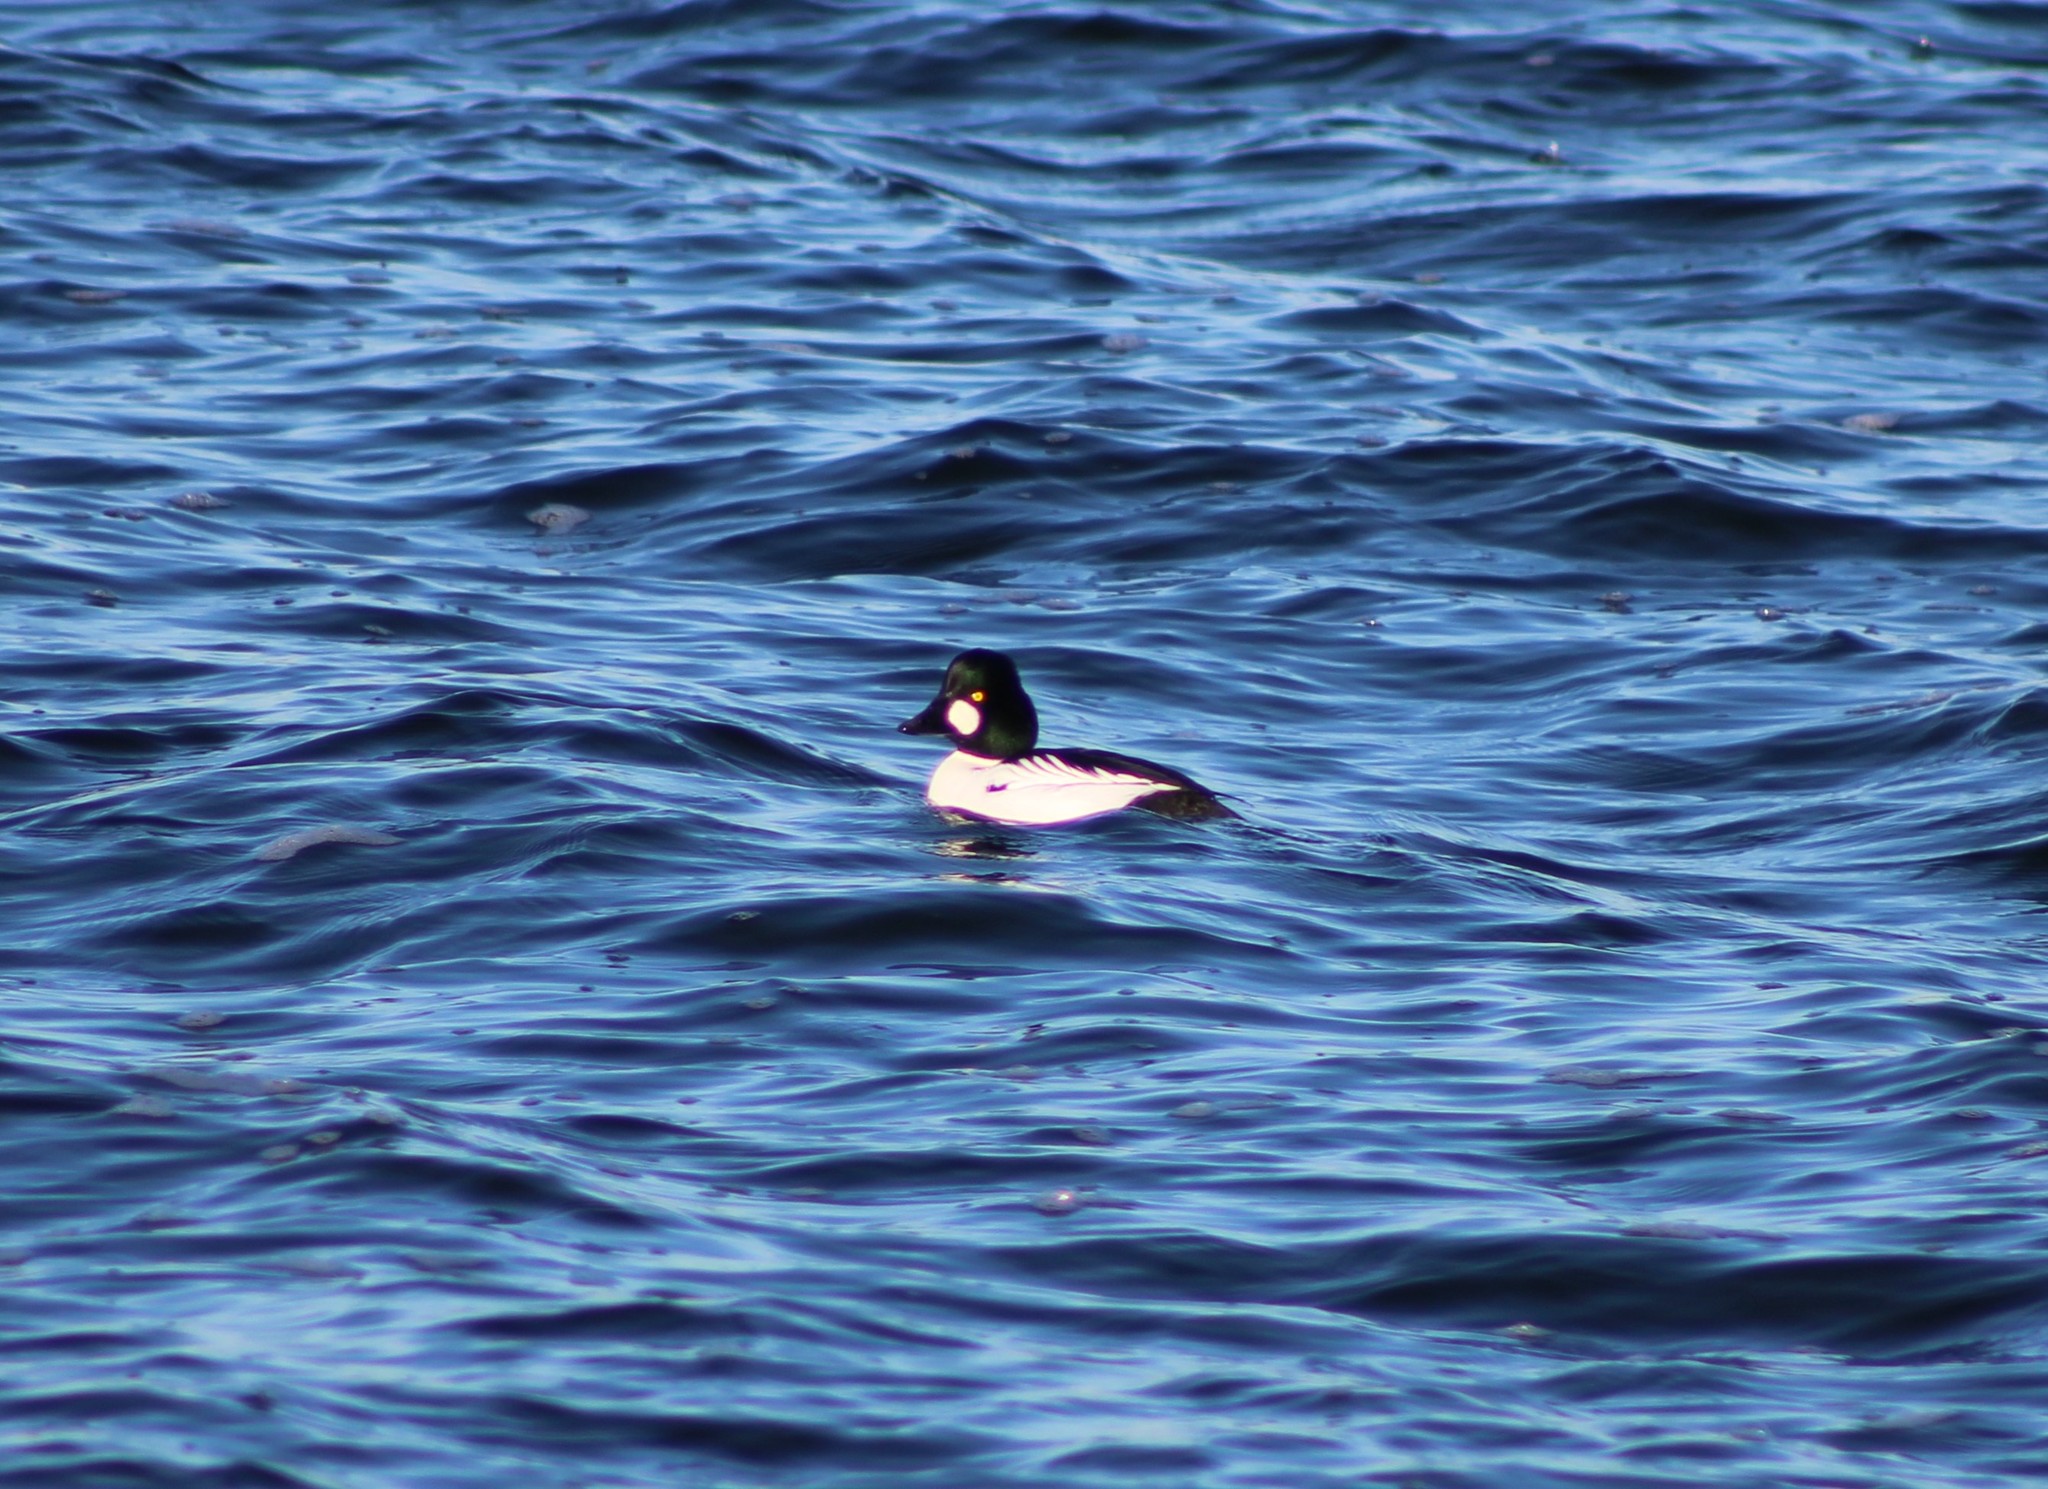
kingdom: Animalia
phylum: Chordata
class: Aves
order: Anseriformes
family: Anatidae
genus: Bucephala
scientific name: Bucephala clangula
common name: Common goldeneye
